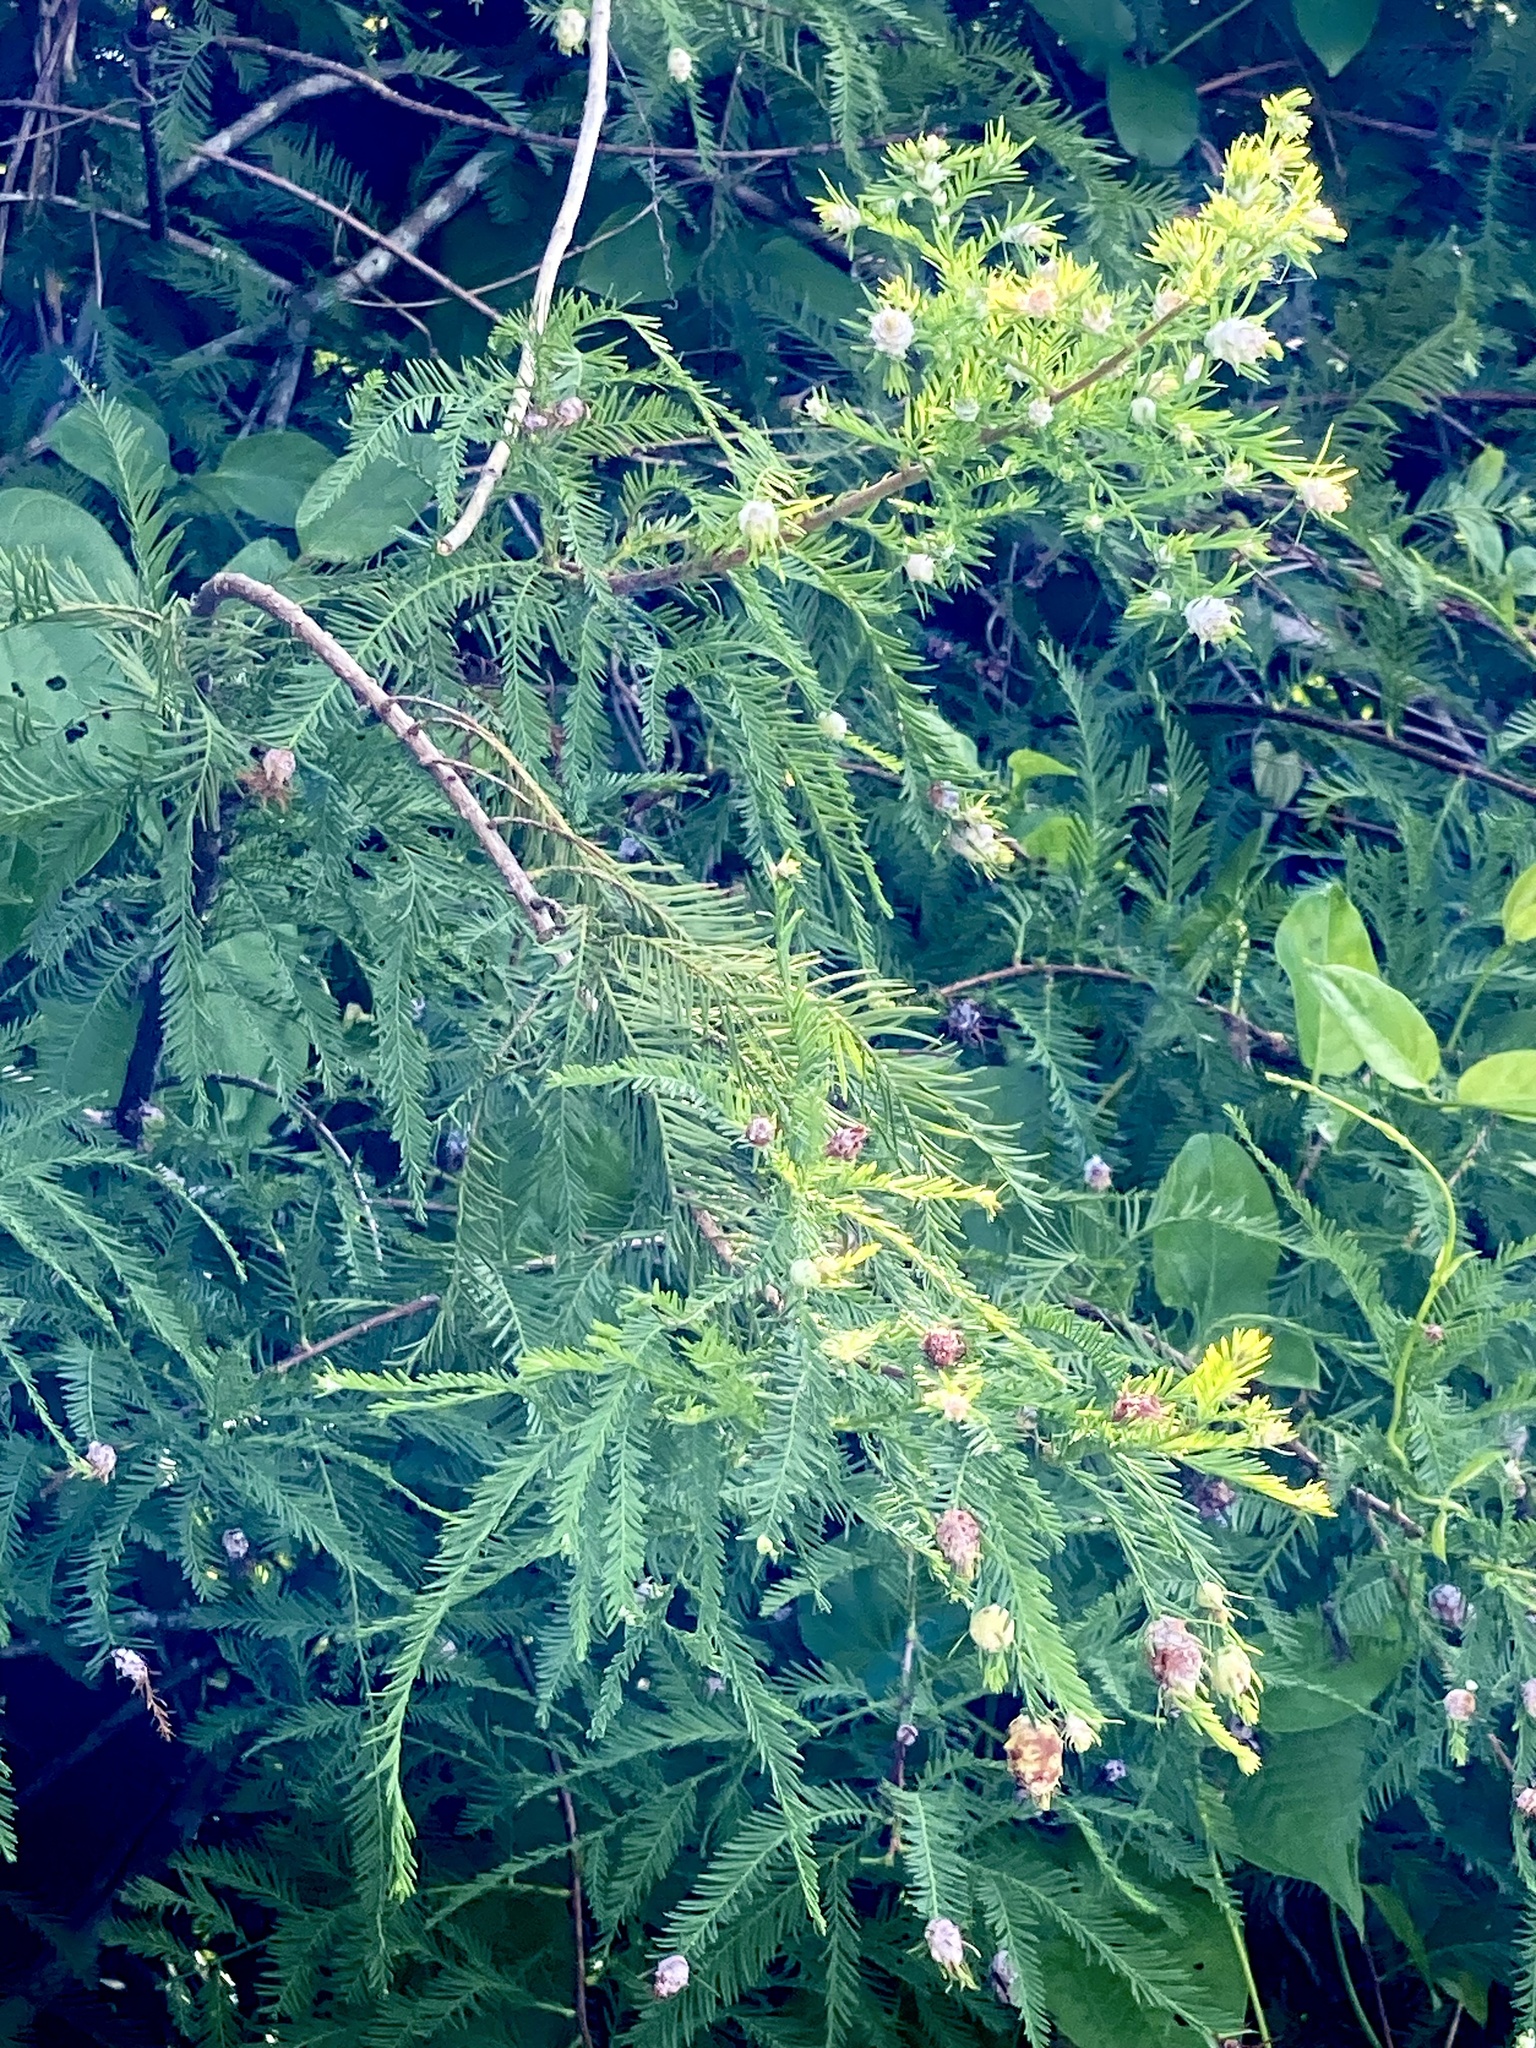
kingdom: Animalia
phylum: Arthropoda
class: Insecta
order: Diptera
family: Cecidomyiidae
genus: Taxodiomyia
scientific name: Taxodiomyia cupressiananassa
